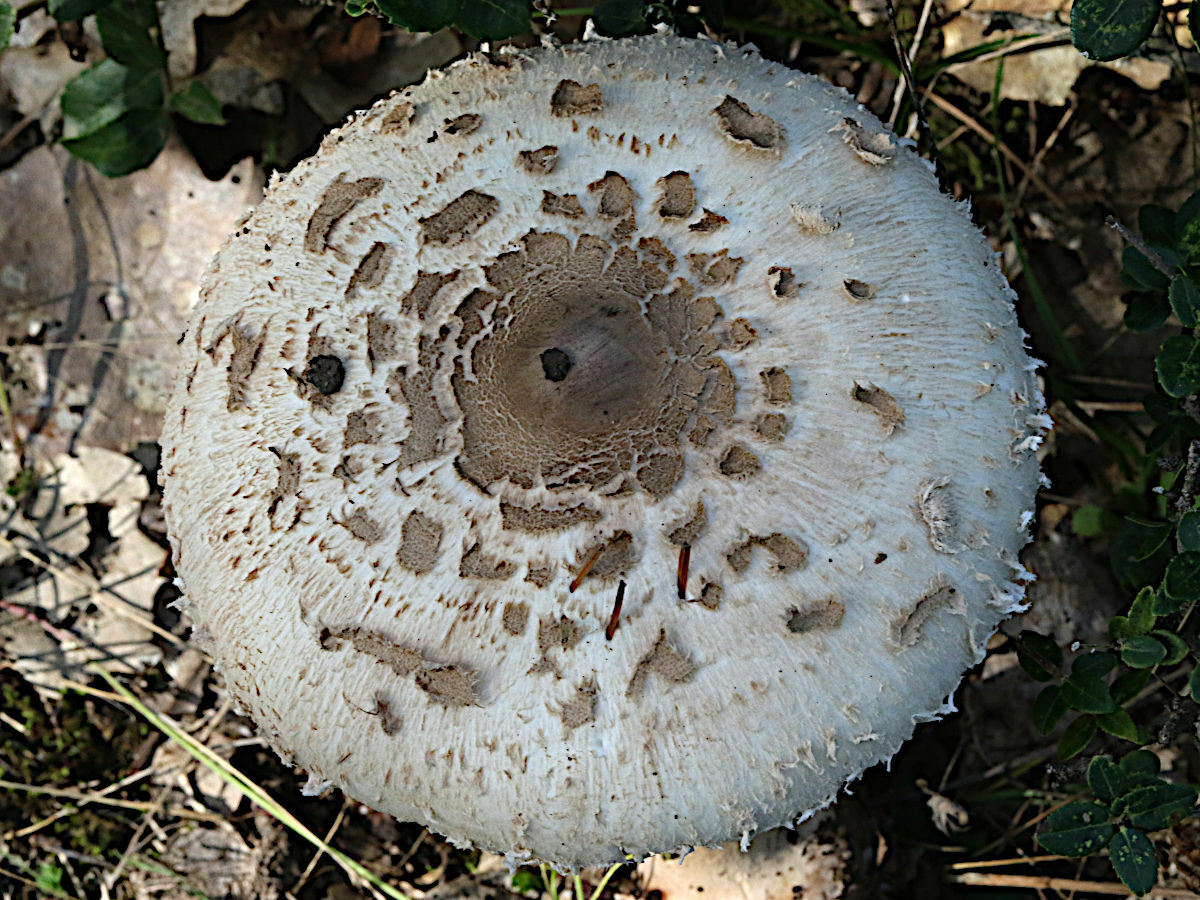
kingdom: Fungi
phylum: Basidiomycota
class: Agaricomycetes
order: Agaricales
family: Agaricaceae
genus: Macrolepiota
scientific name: Macrolepiota procera
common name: Parasol
